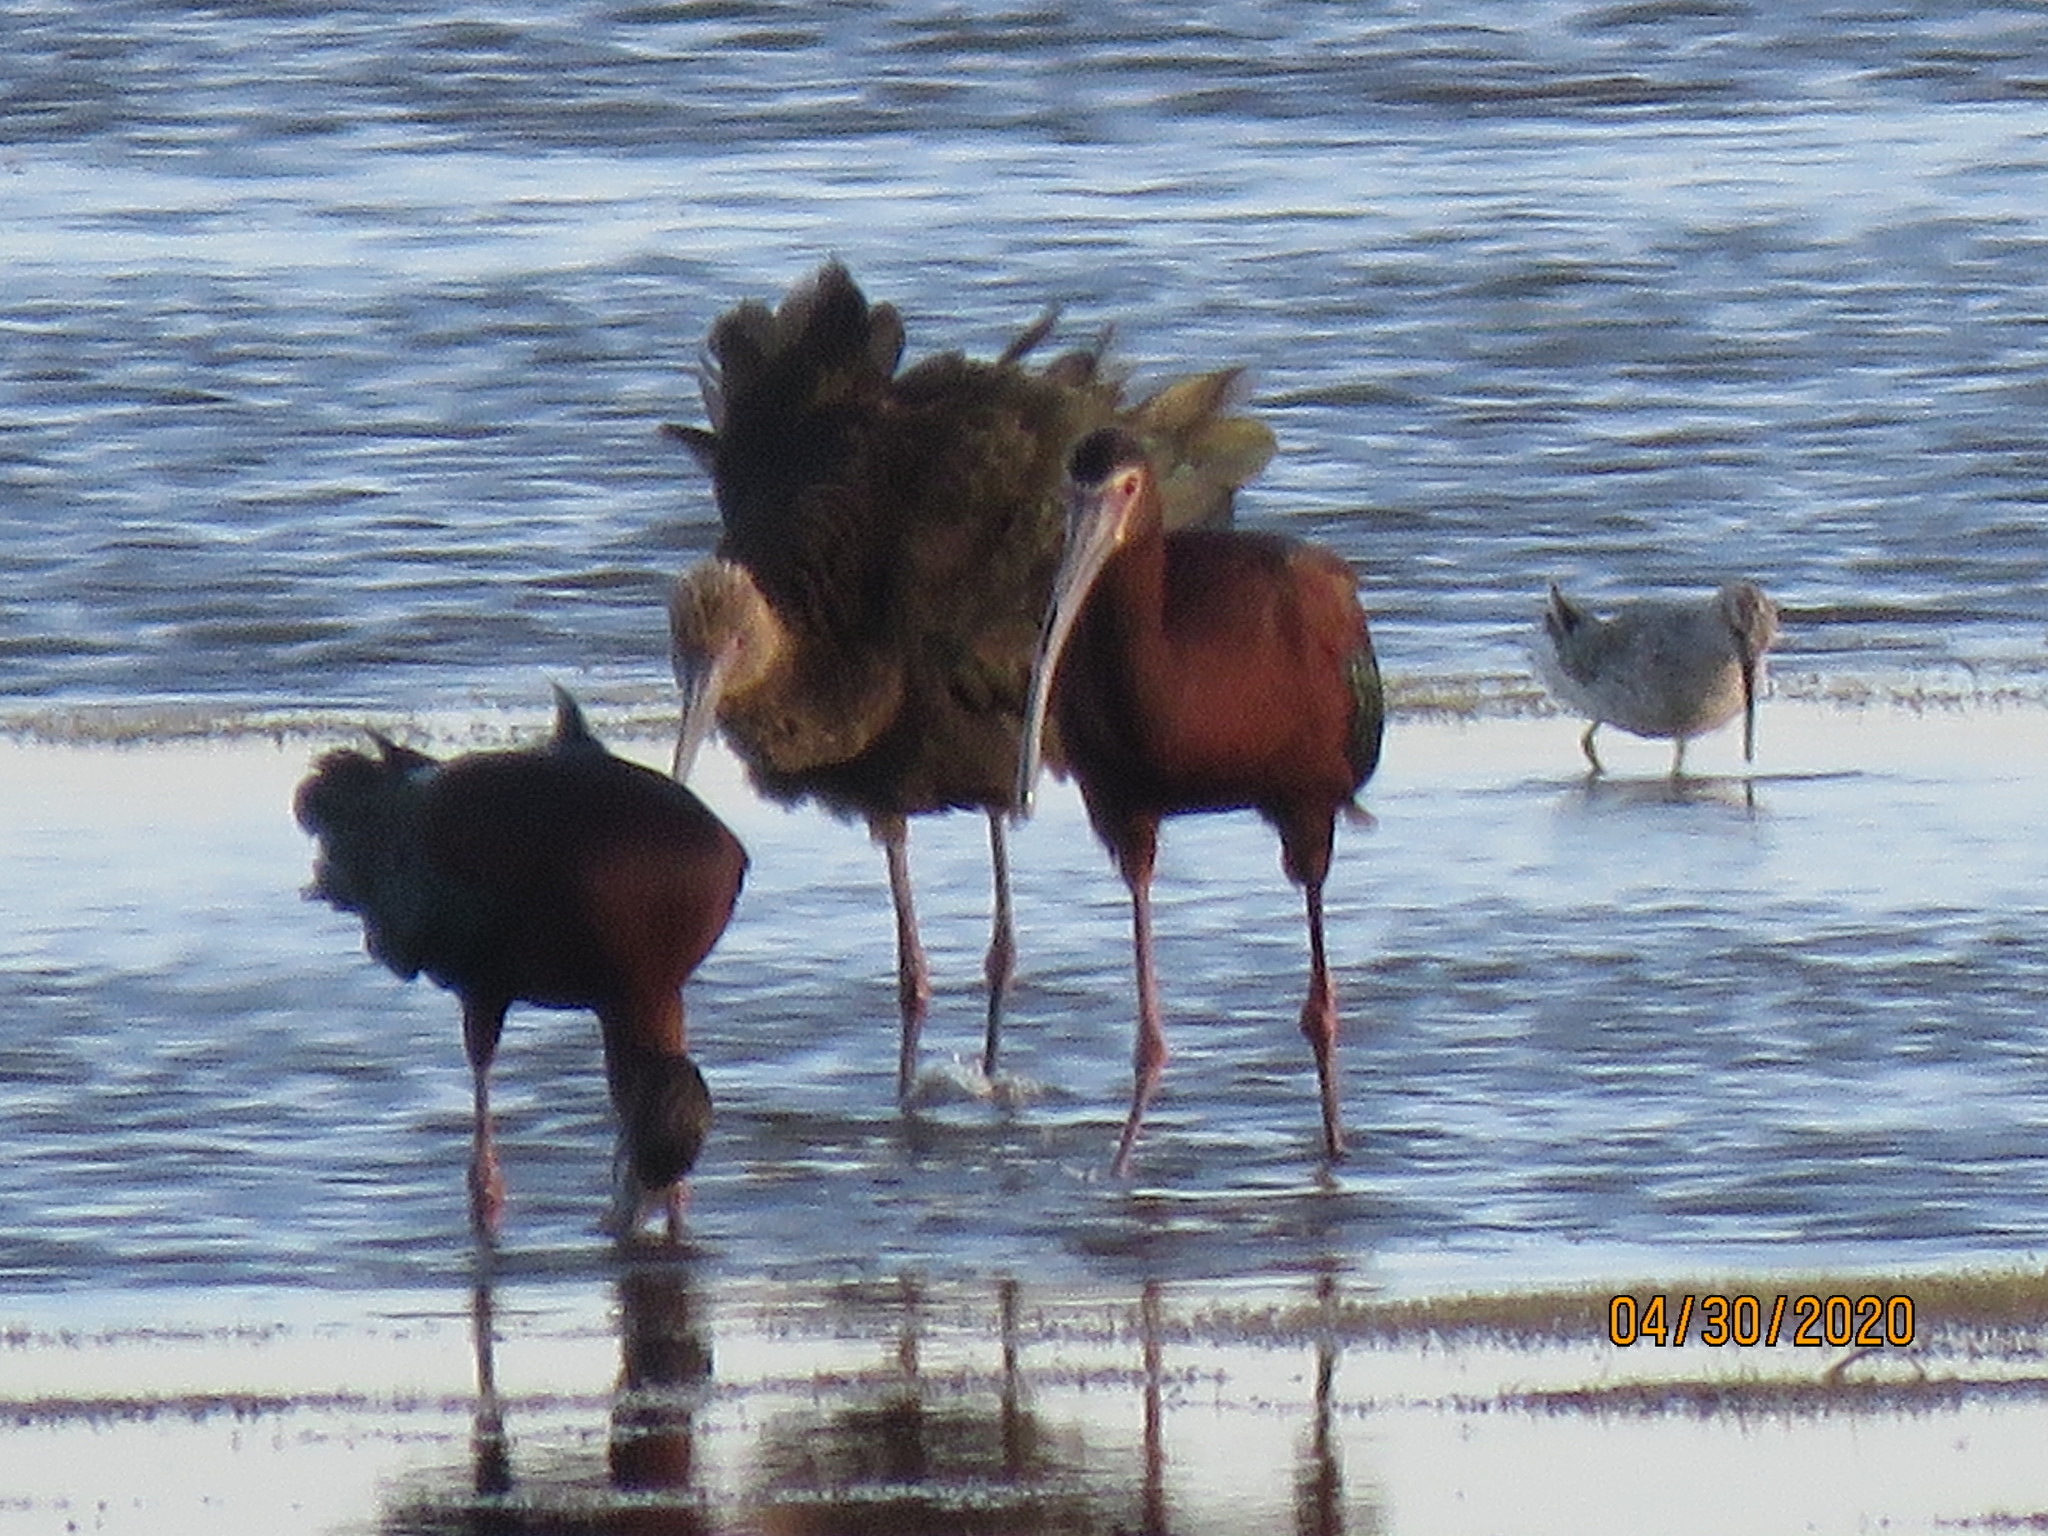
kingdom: Animalia
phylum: Chordata
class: Aves
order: Pelecaniformes
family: Threskiornithidae
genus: Plegadis
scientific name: Plegadis chihi
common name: White-faced ibis
